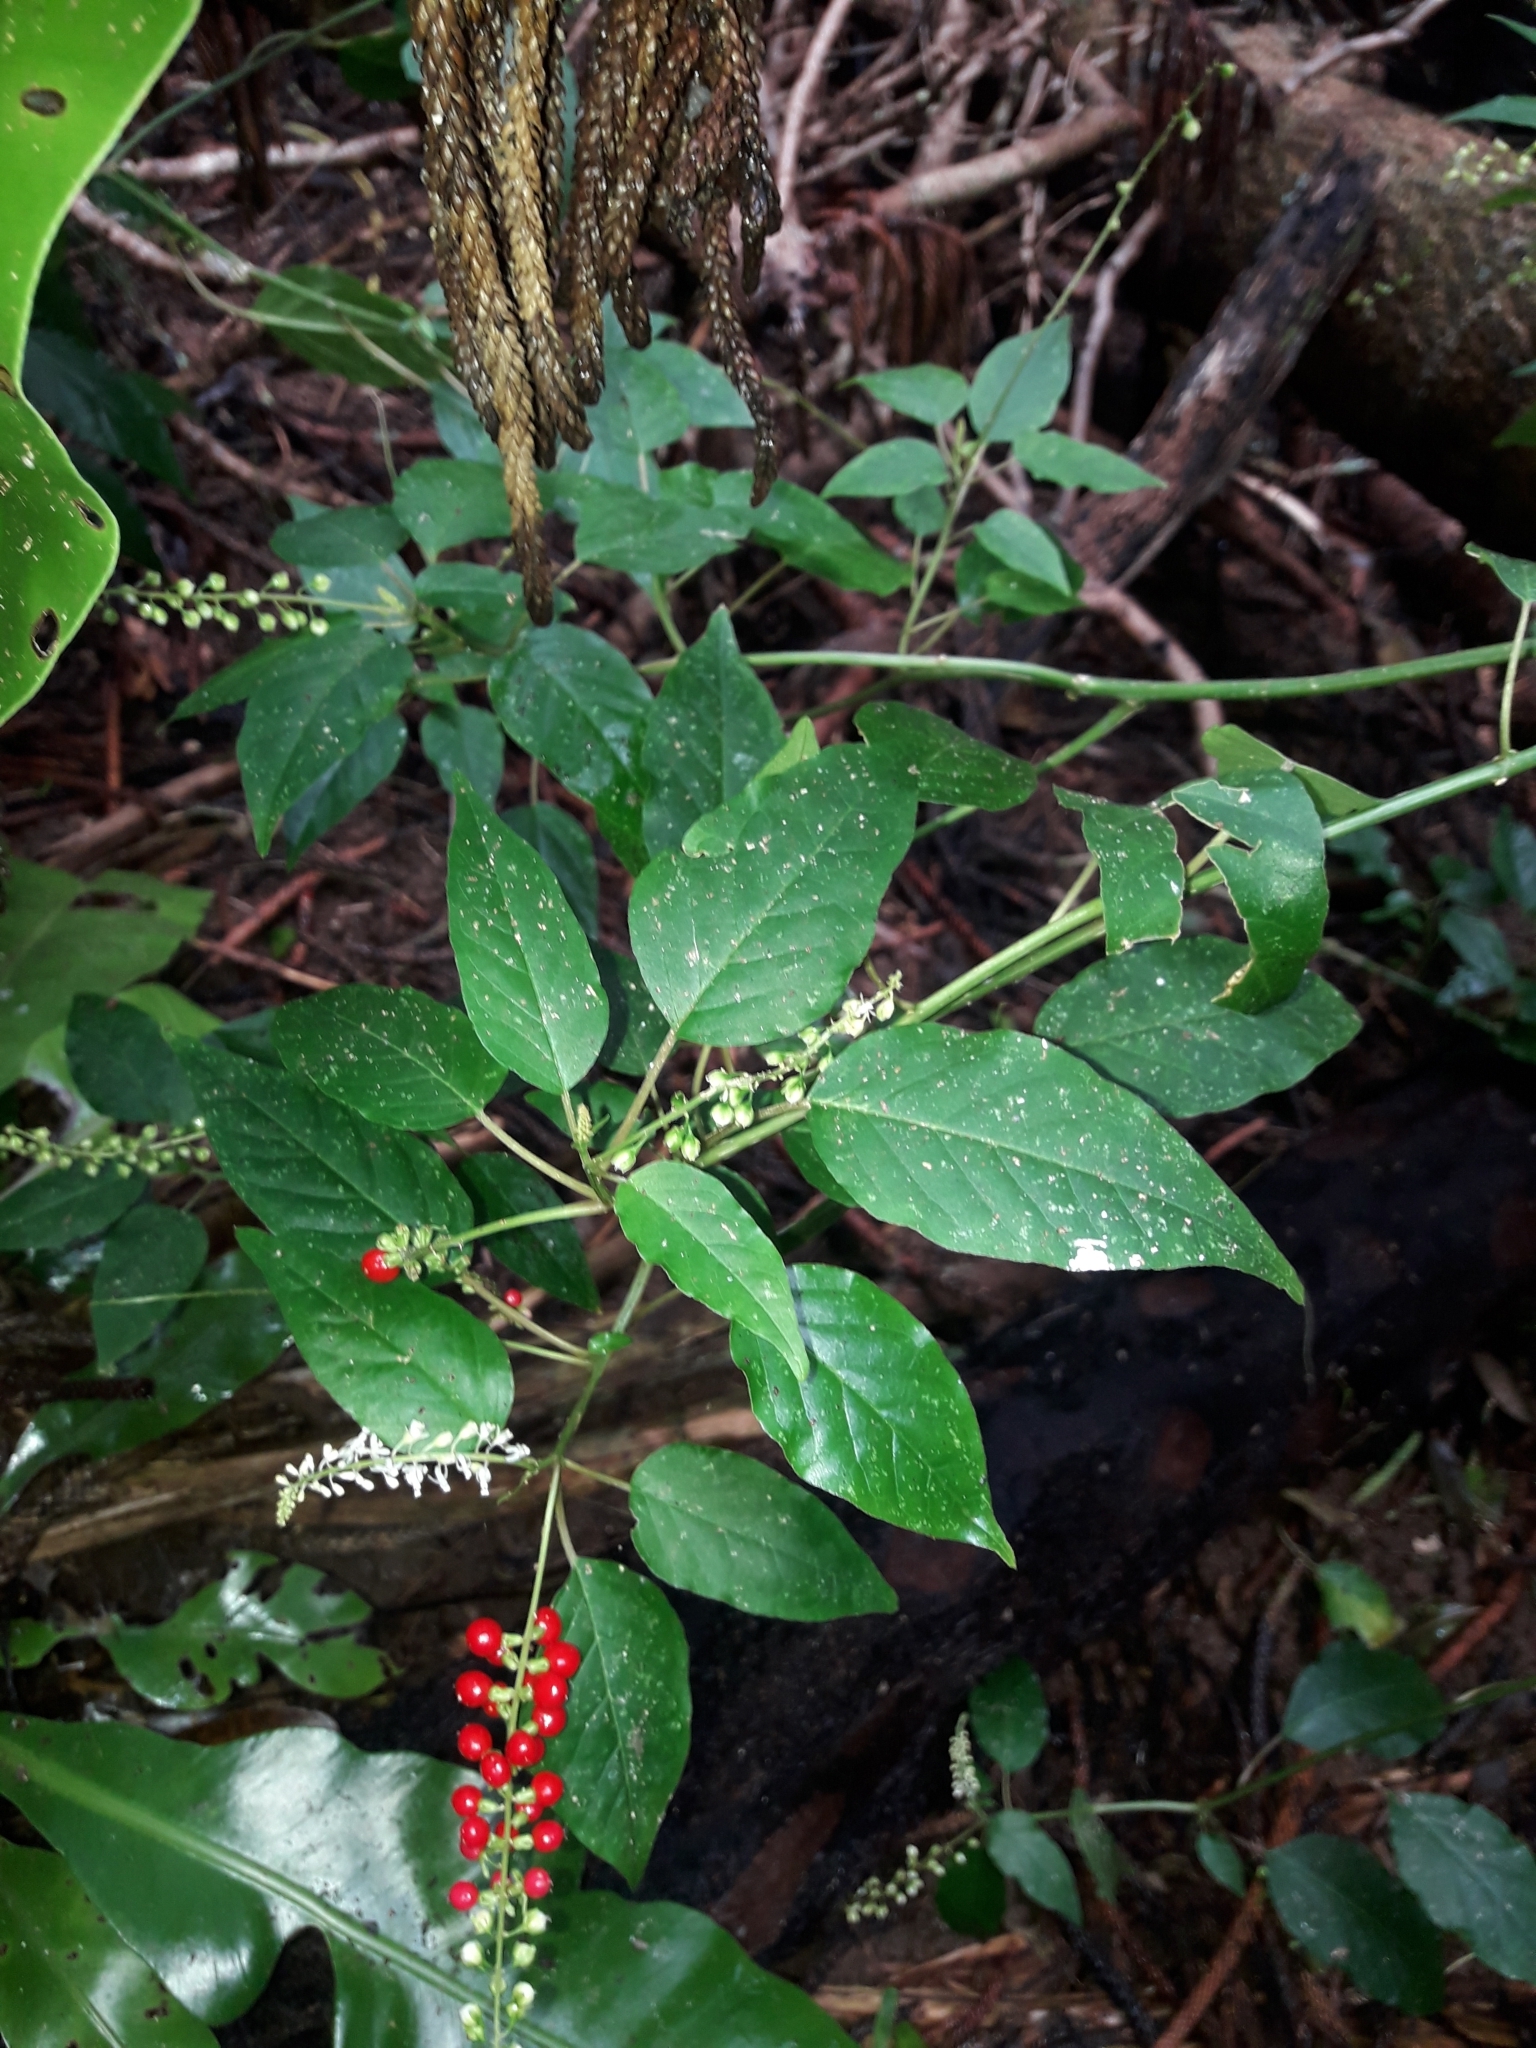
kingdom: Plantae
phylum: Tracheophyta
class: Magnoliopsida
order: Caryophyllales
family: Phytolaccaceae
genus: Rivina
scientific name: Rivina humilis
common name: Rougeplant
